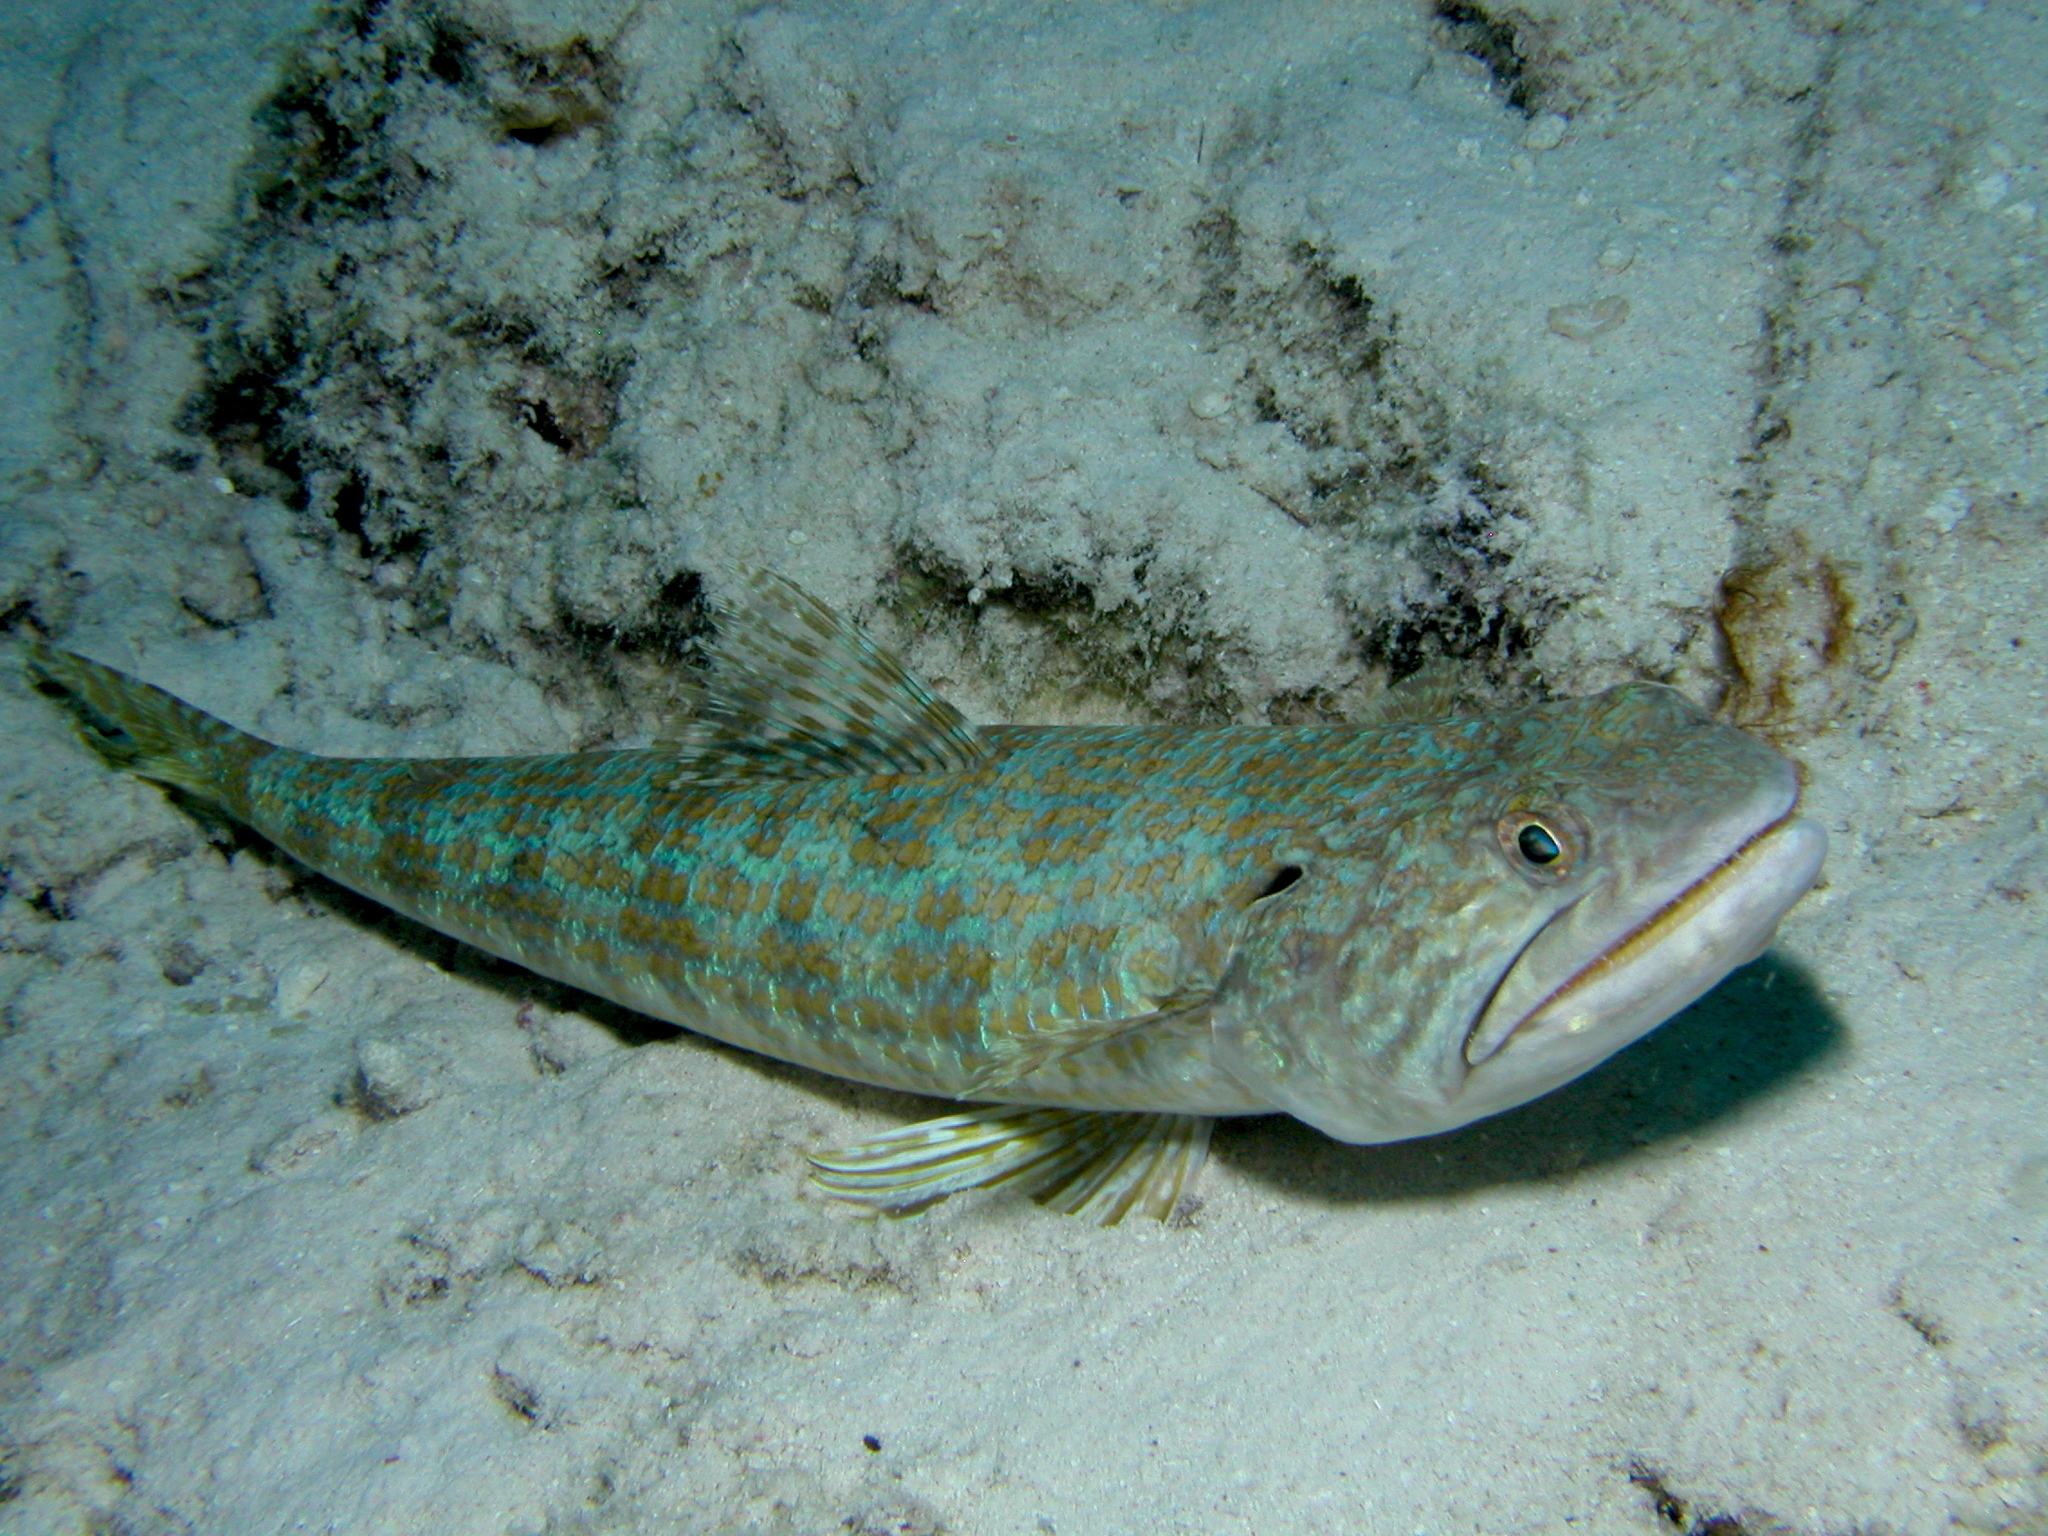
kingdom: Animalia
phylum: Chordata
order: Aulopiformes
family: Synodontidae
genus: Synodus
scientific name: Synodus intermedius
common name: Sand diver
